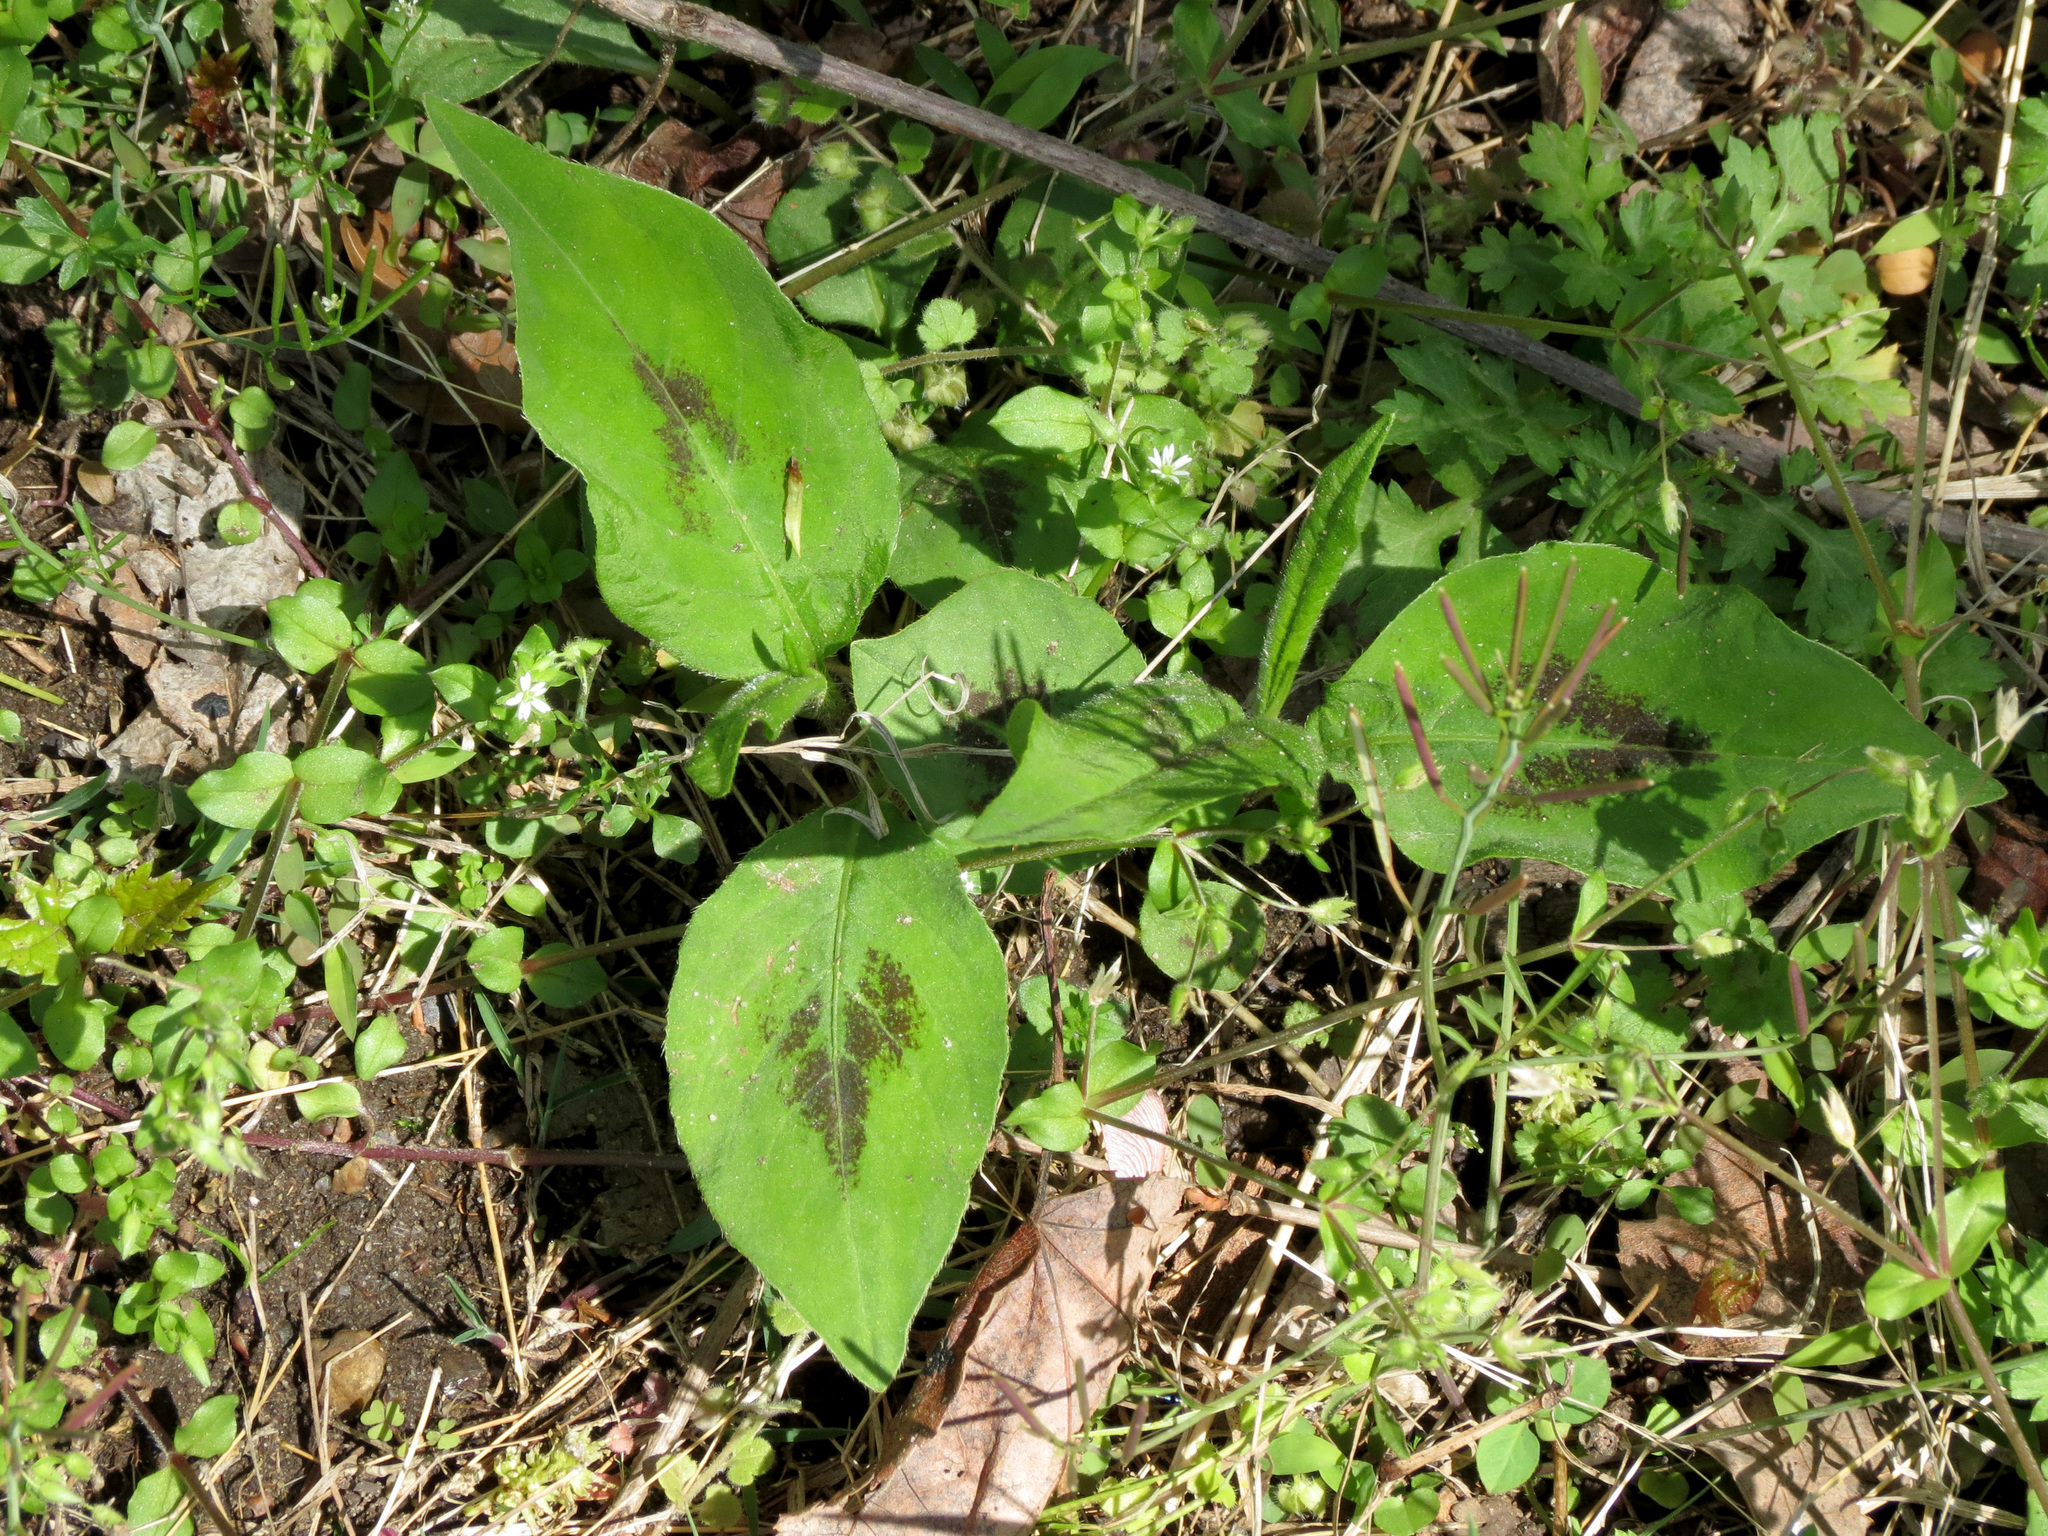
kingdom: Plantae
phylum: Tracheophyta
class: Magnoliopsida
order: Caryophyllales
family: Polygonaceae
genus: Persicaria
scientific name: Persicaria virginiana
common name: Jumpseed
